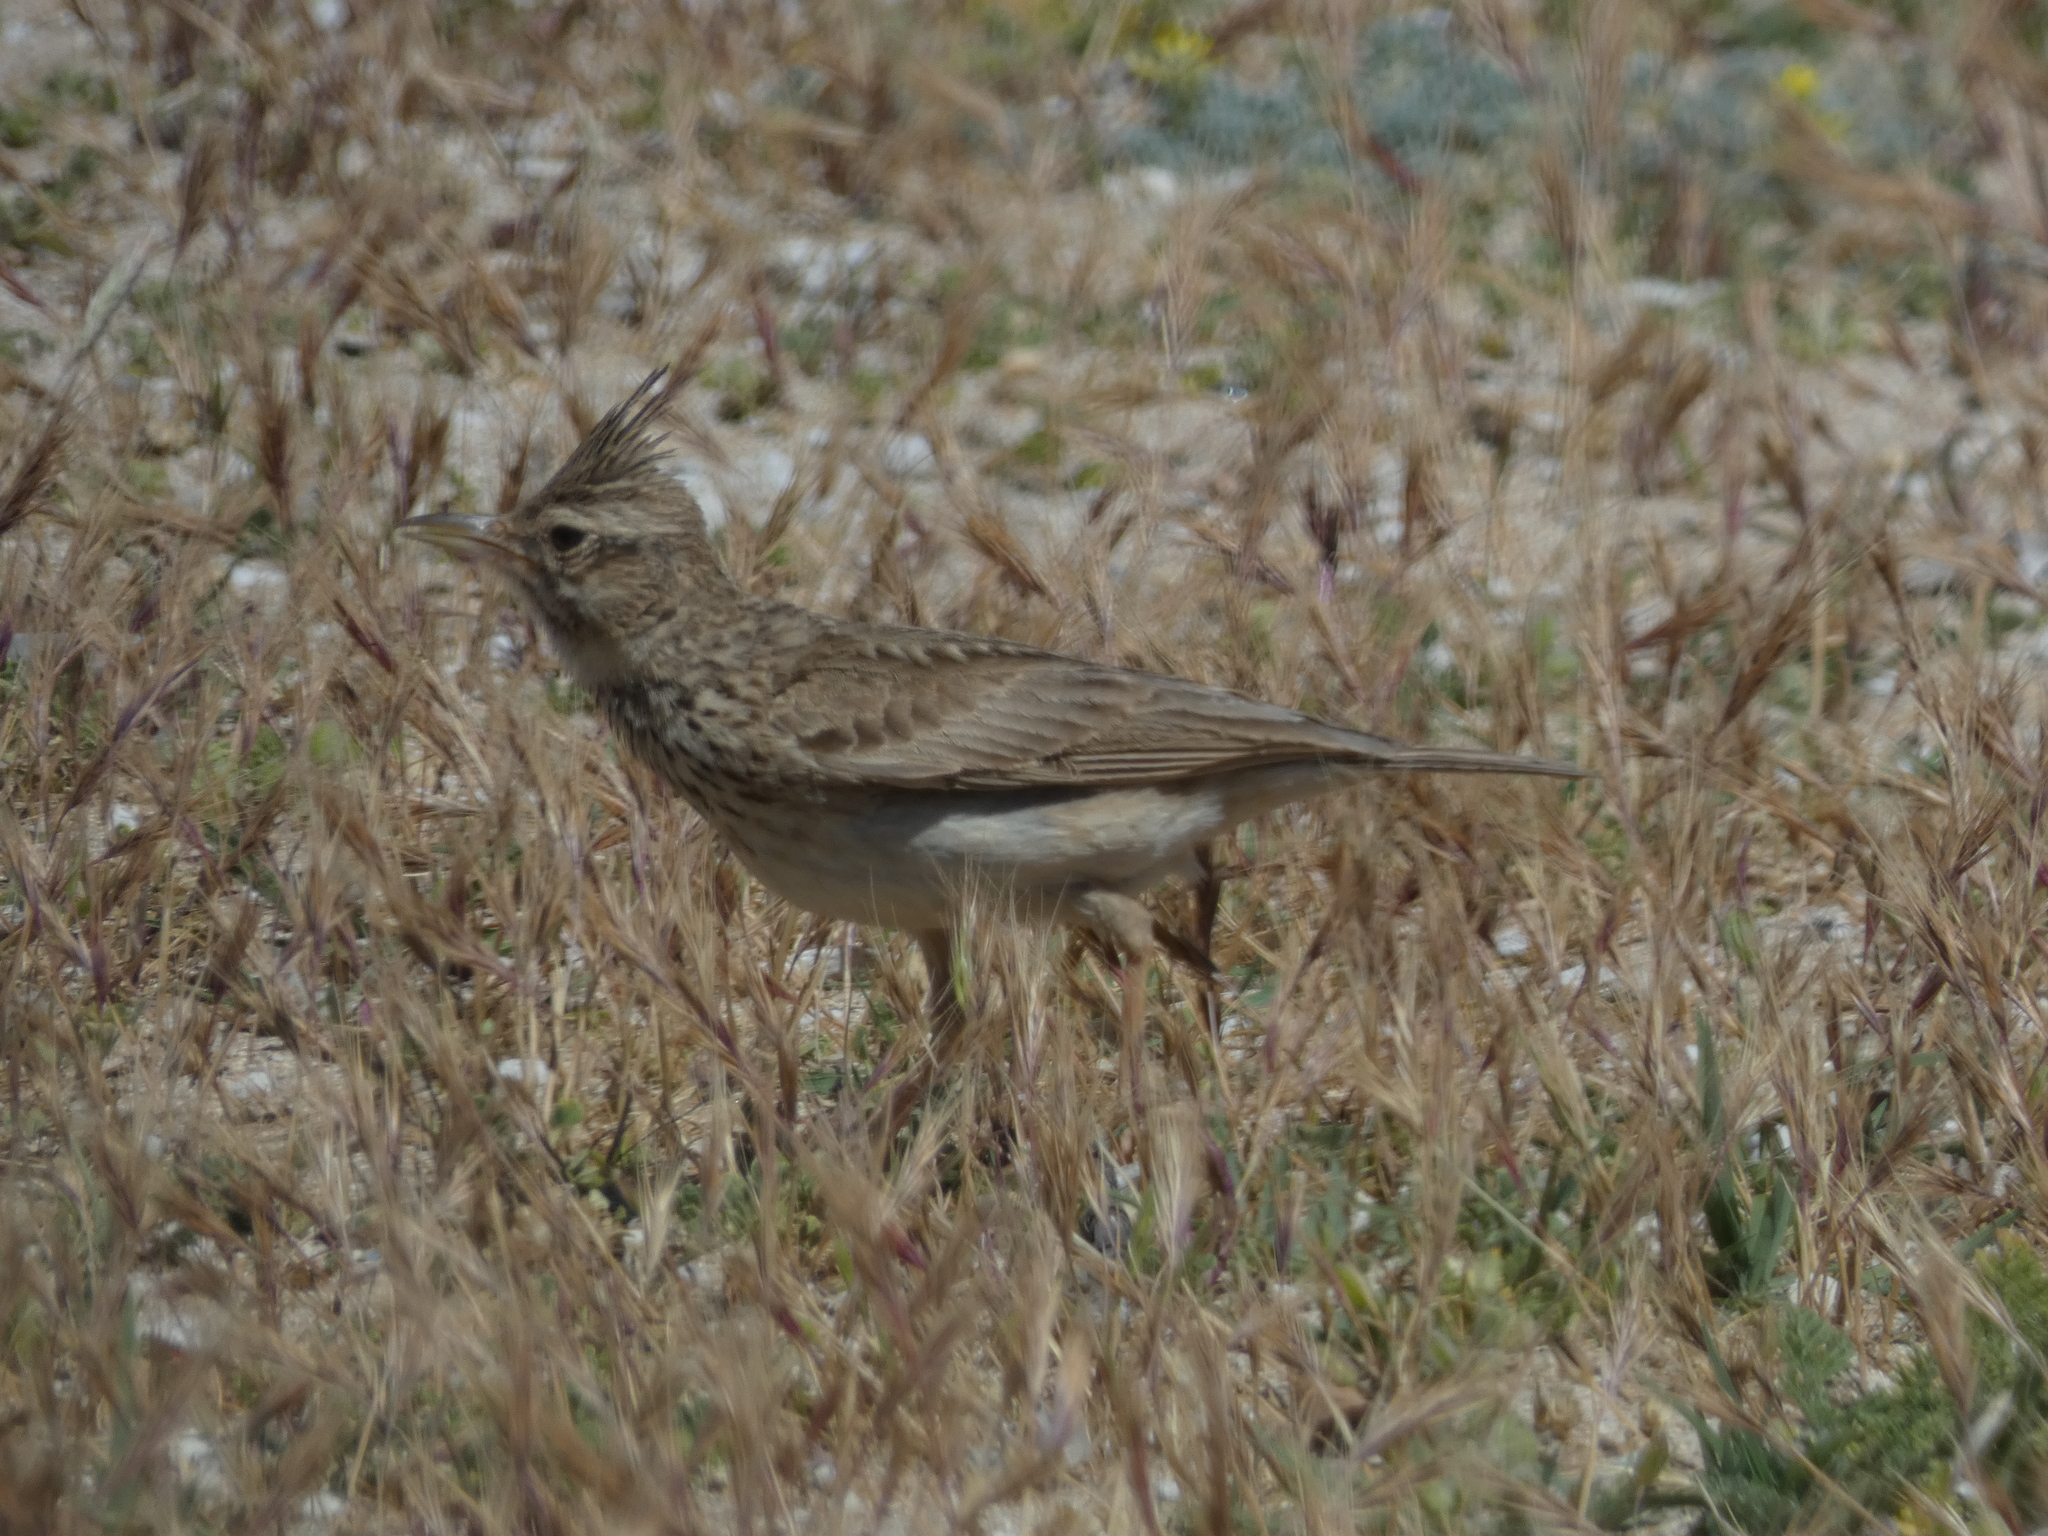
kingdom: Animalia
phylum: Chordata
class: Aves
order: Passeriformes
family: Alaudidae
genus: Galerida
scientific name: Galerida cristata
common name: Crested lark
